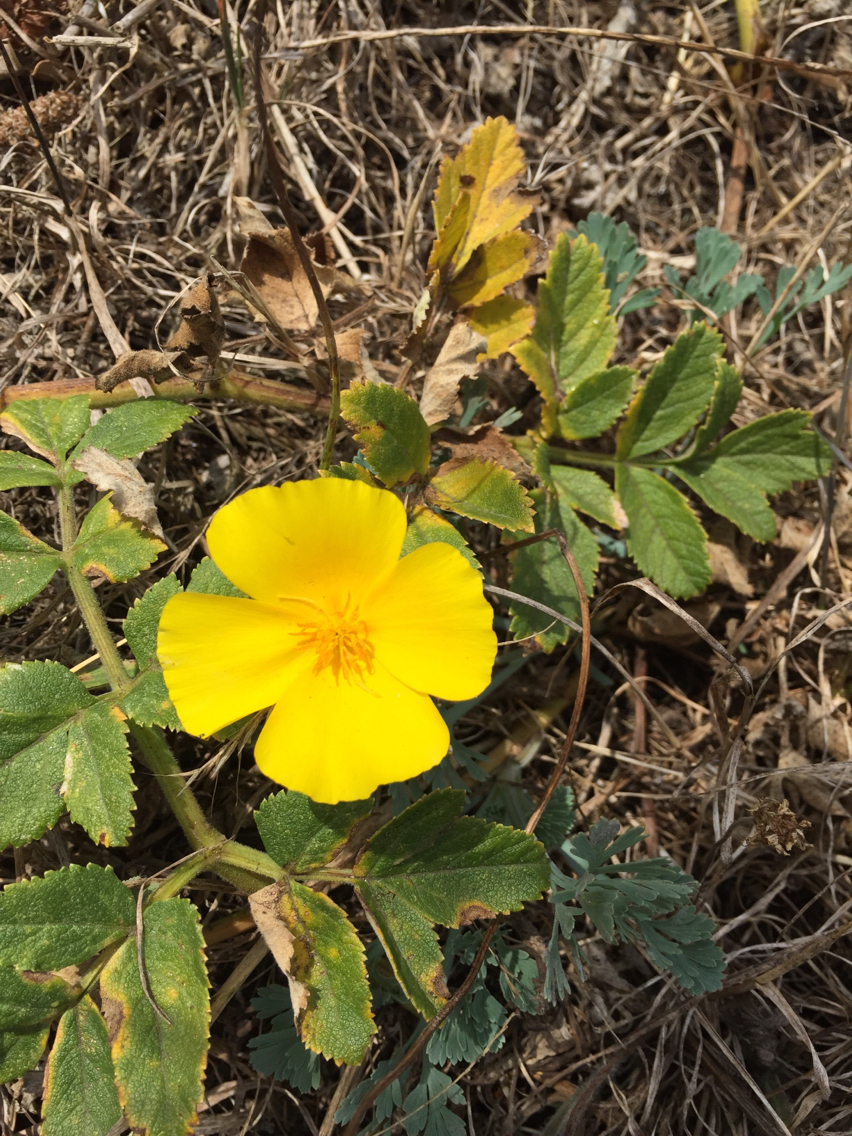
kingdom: Plantae
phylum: Tracheophyta
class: Magnoliopsida
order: Ranunculales
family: Papaveraceae
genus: Eschscholzia
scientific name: Eschscholzia californica
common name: California poppy
